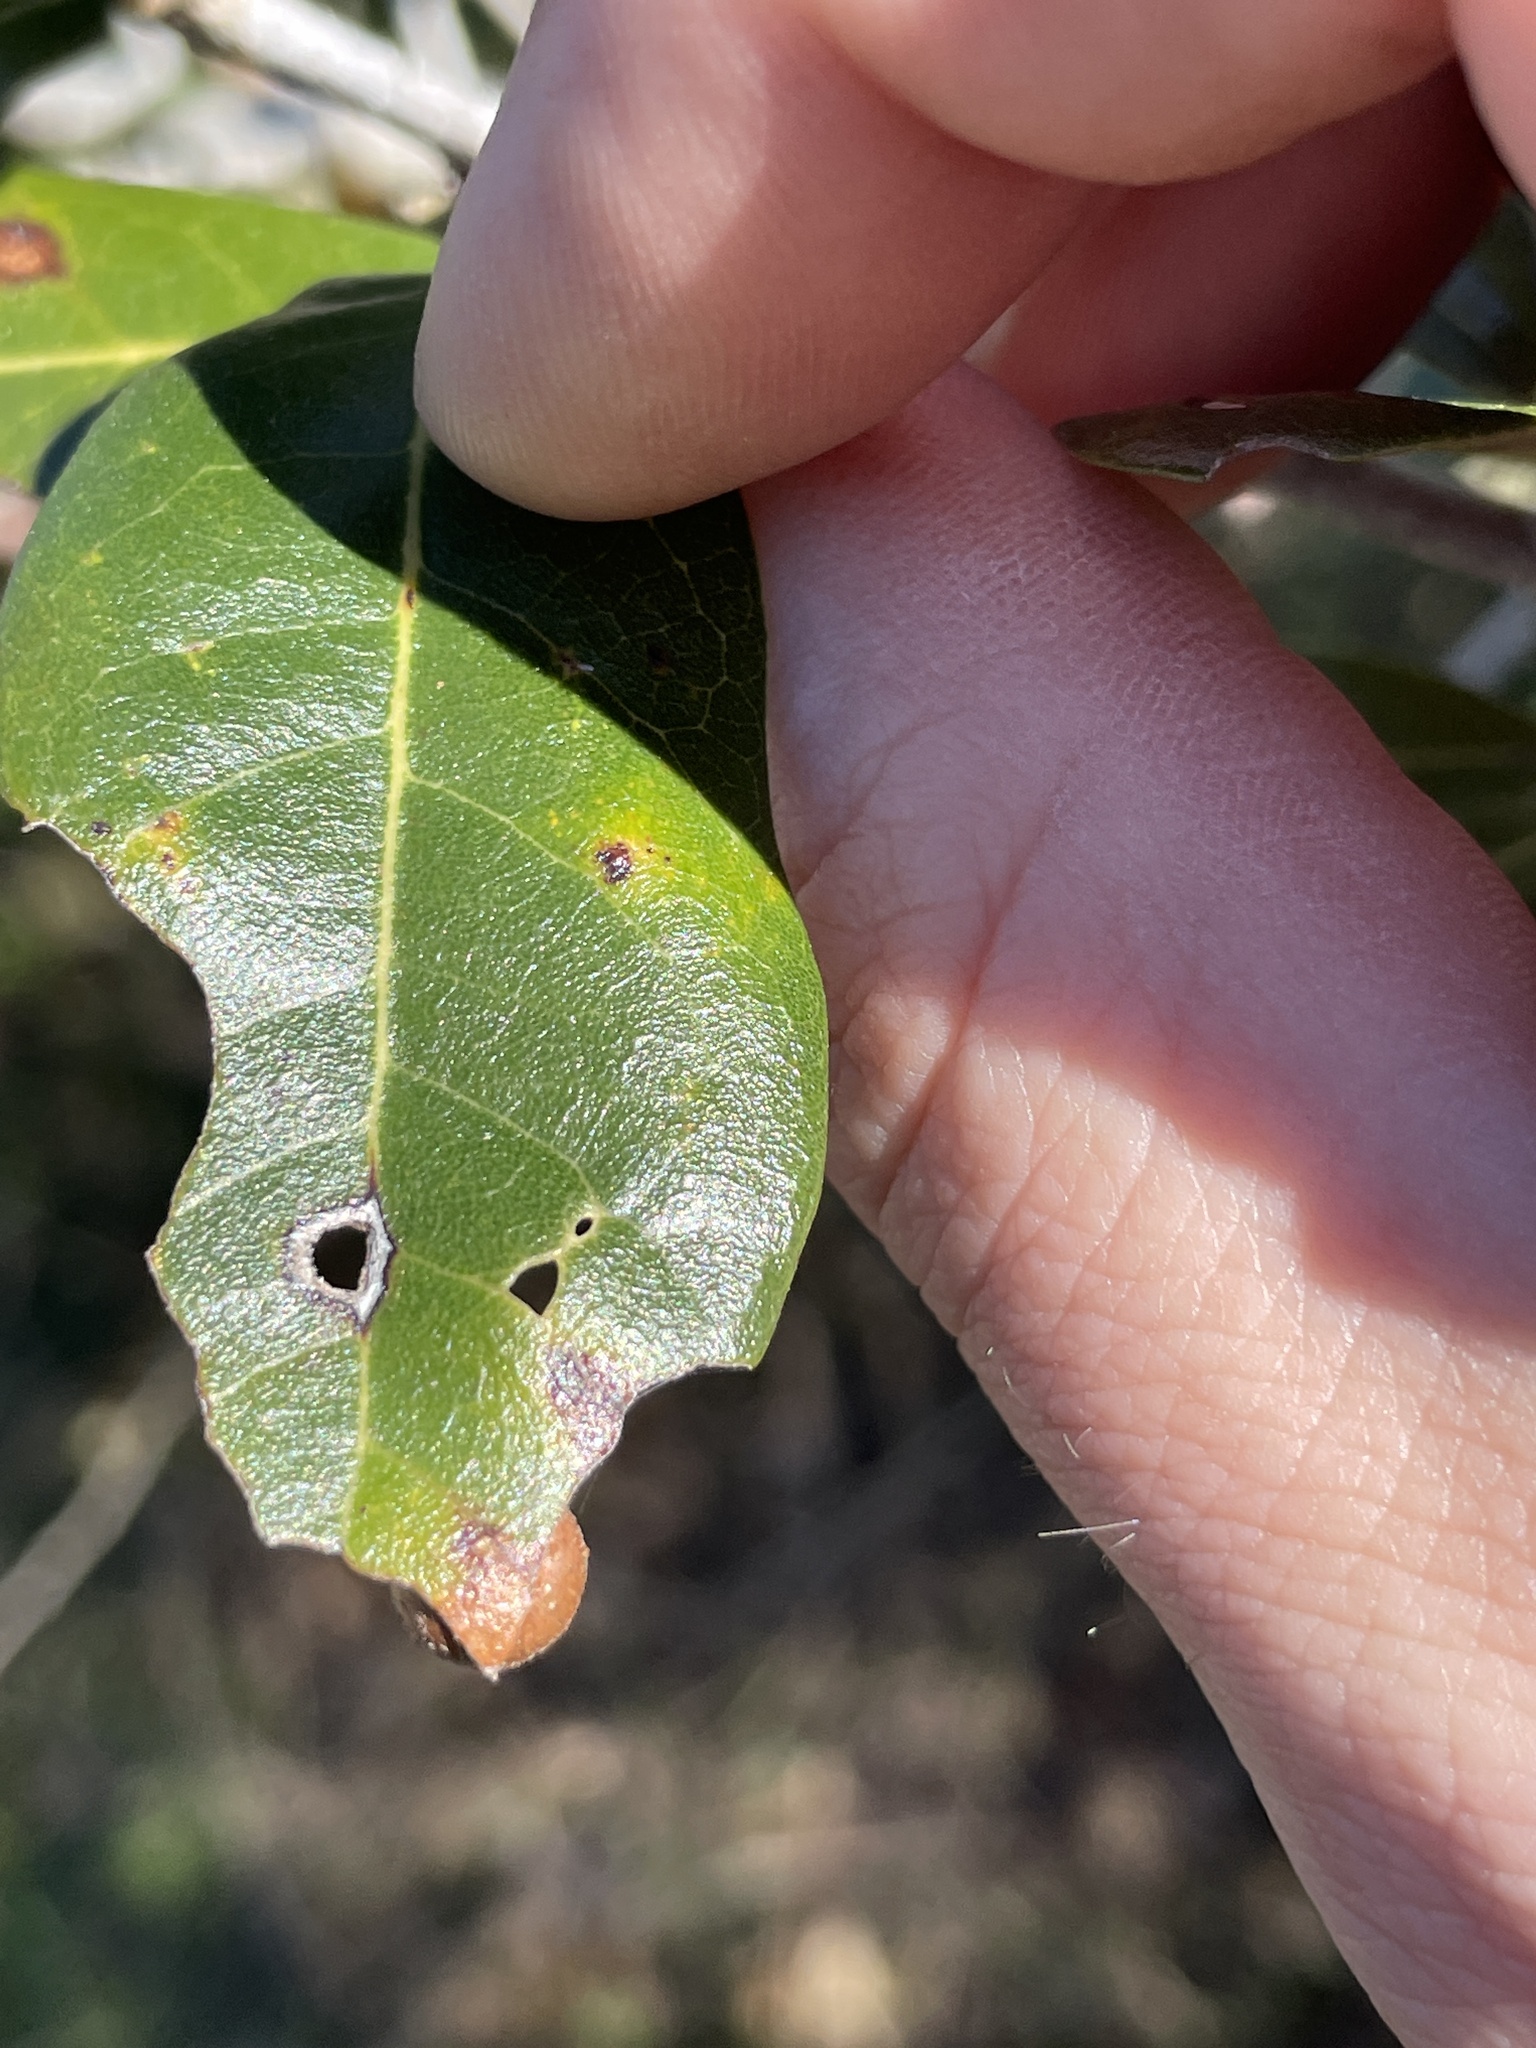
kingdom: Animalia
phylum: Arthropoda
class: Insecta
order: Hymenoptera
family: Cynipidae
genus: Belonocnema
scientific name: Belonocnema kinseyi
